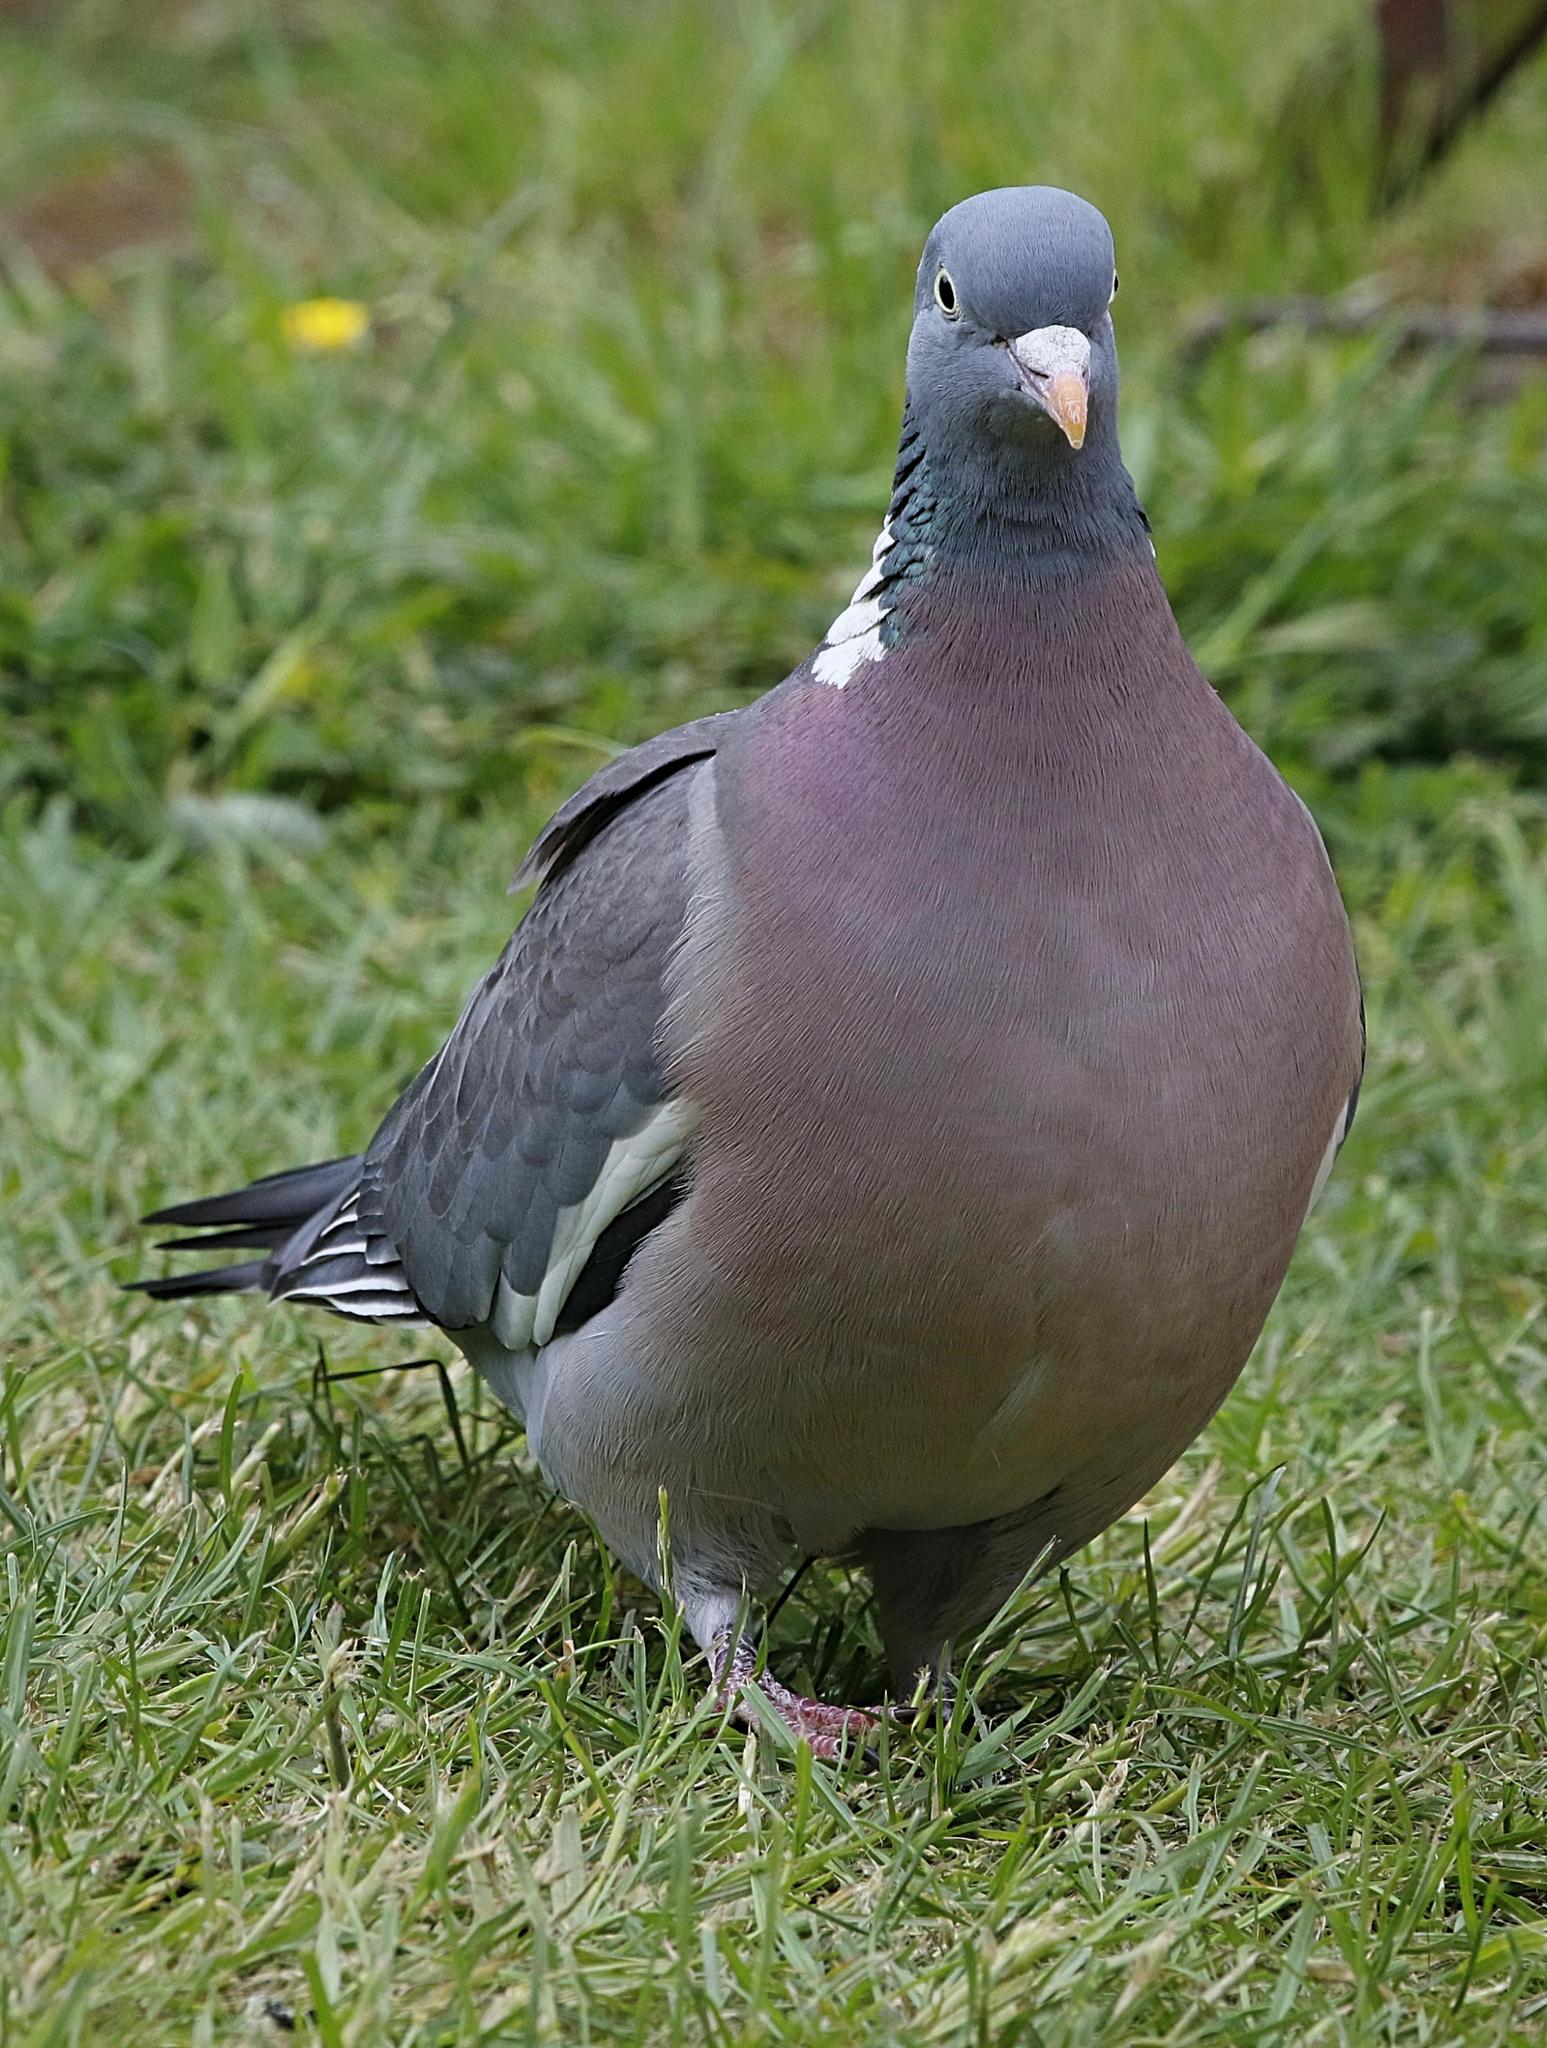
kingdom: Animalia
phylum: Chordata
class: Aves
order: Columbiformes
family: Columbidae
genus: Columba
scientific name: Columba palumbus
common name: Common wood pigeon
